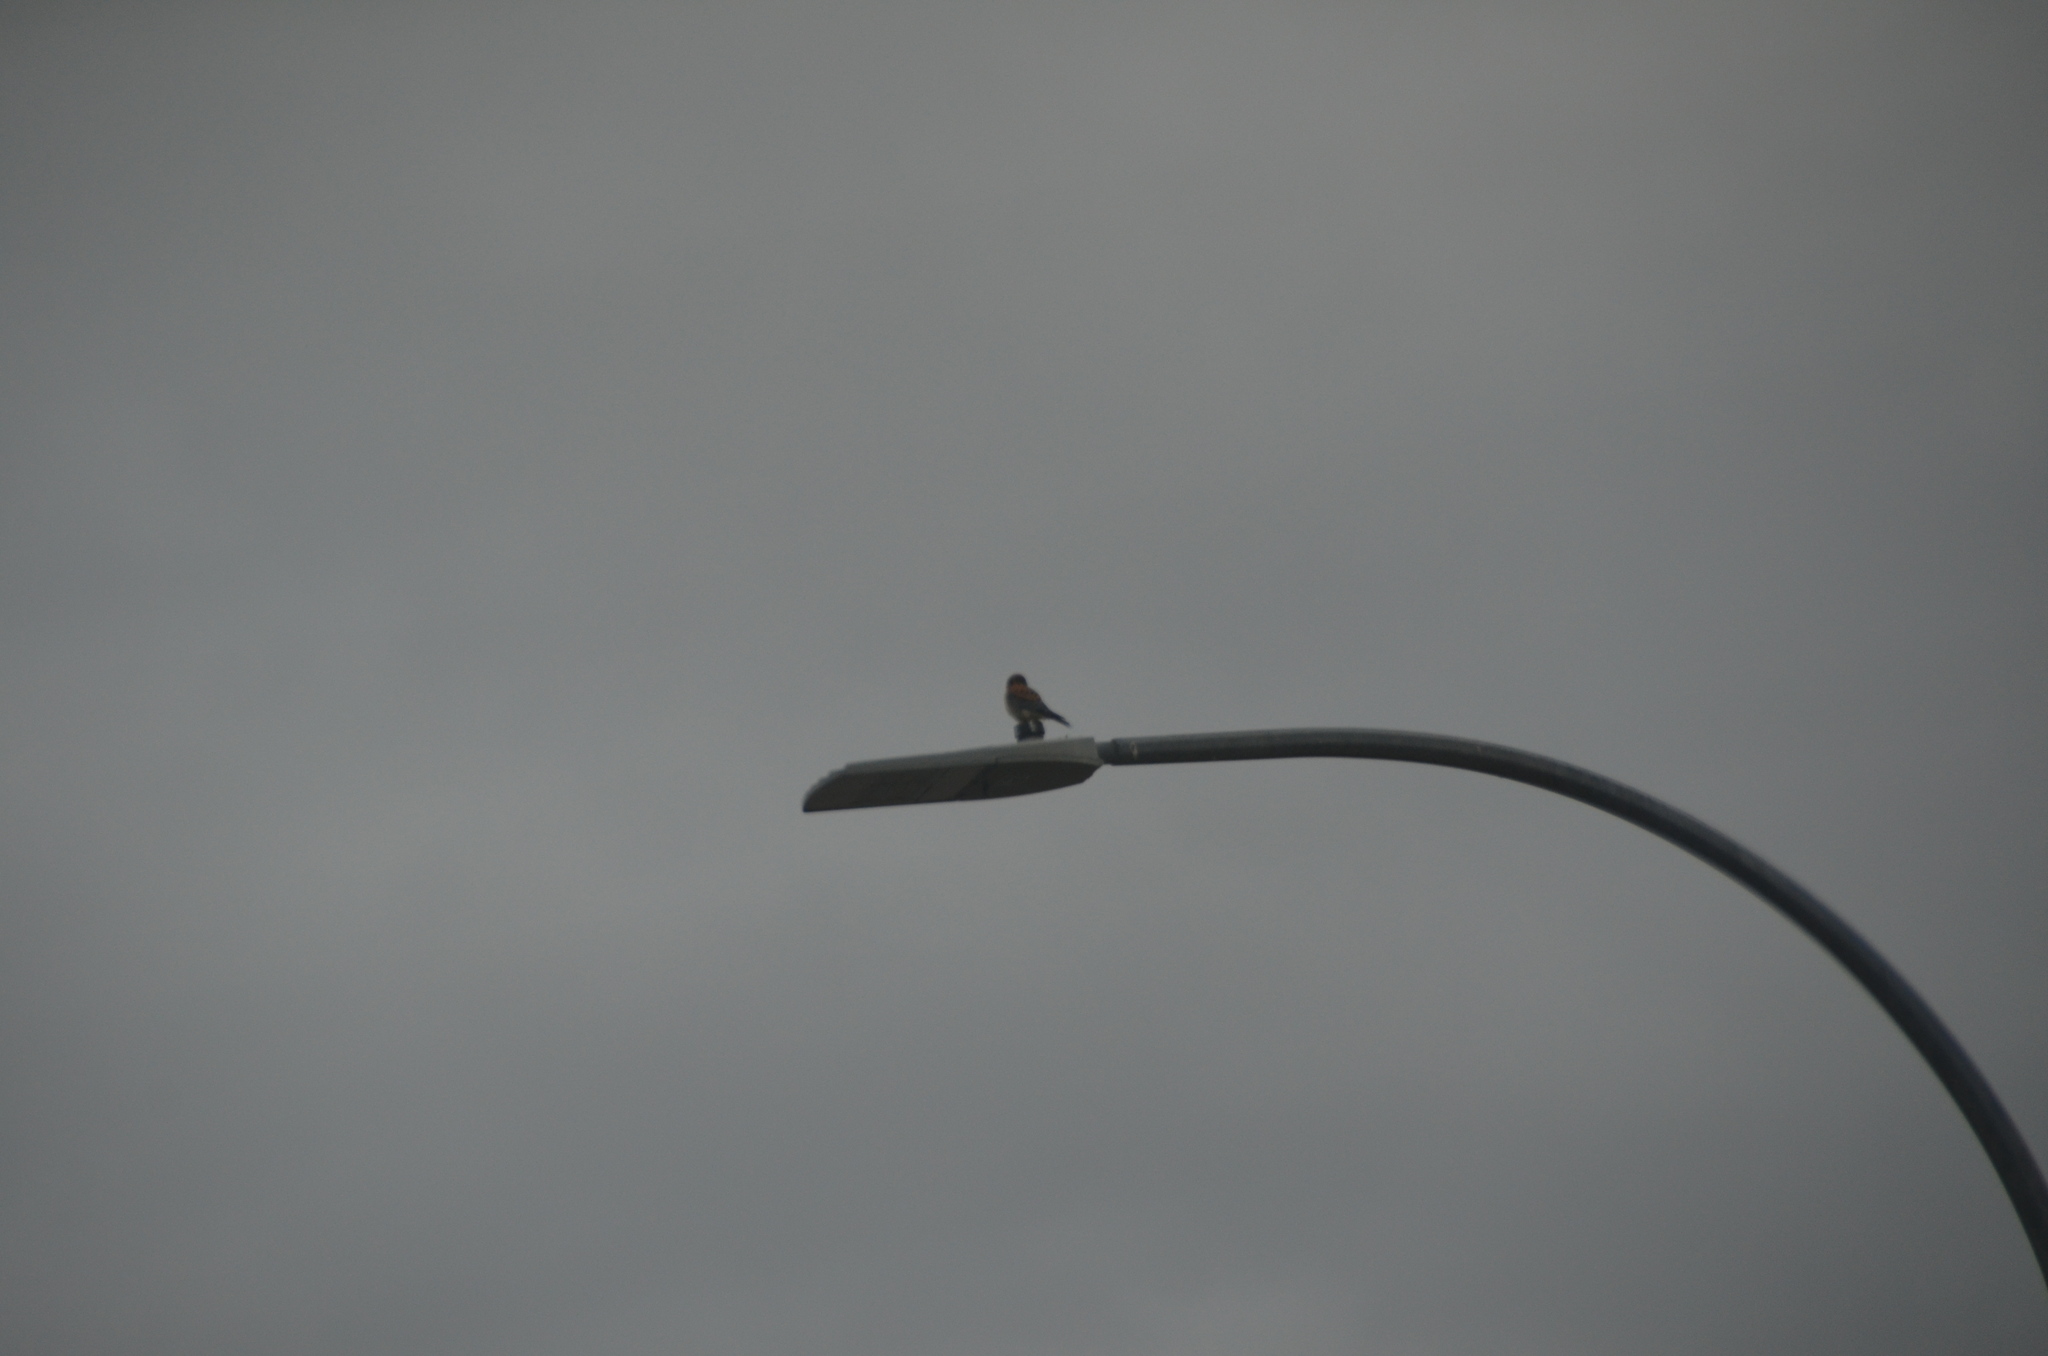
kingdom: Animalia
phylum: Chordata
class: Aves
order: Falconiformes
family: Falconidae
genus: Falco
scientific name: Falco sparverius
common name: American kestrel
